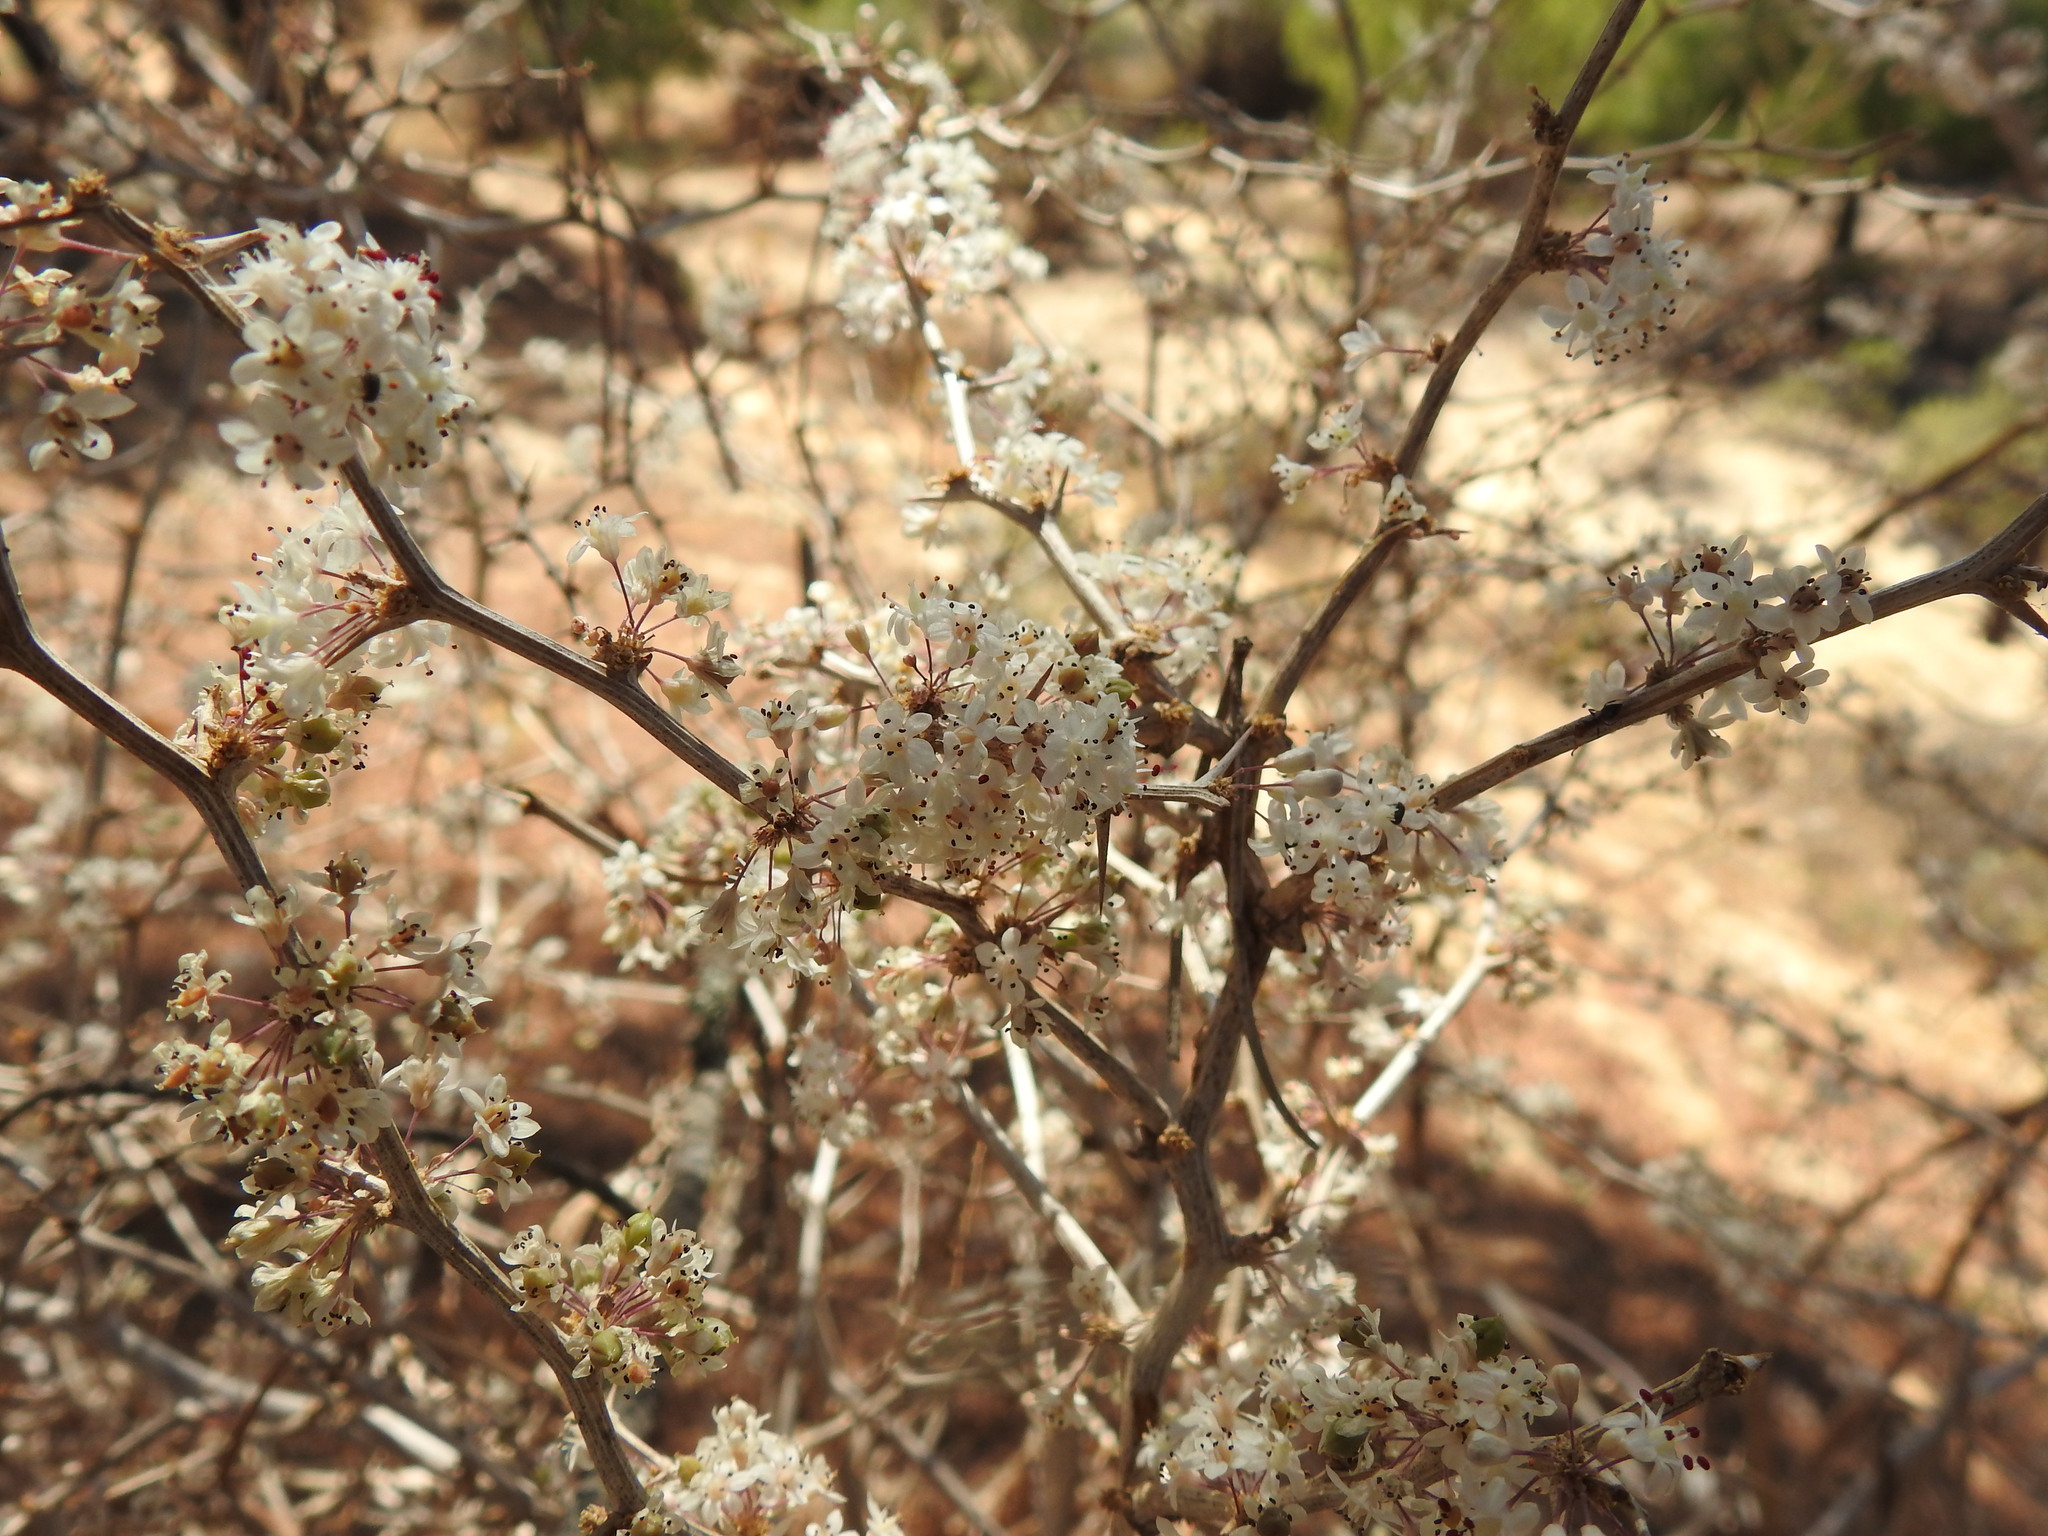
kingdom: Plantae
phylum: Tracheophyta
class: Liliopsida
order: Asparagales
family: Asparagaceae
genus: Asparagus
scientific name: Asparagus albus
